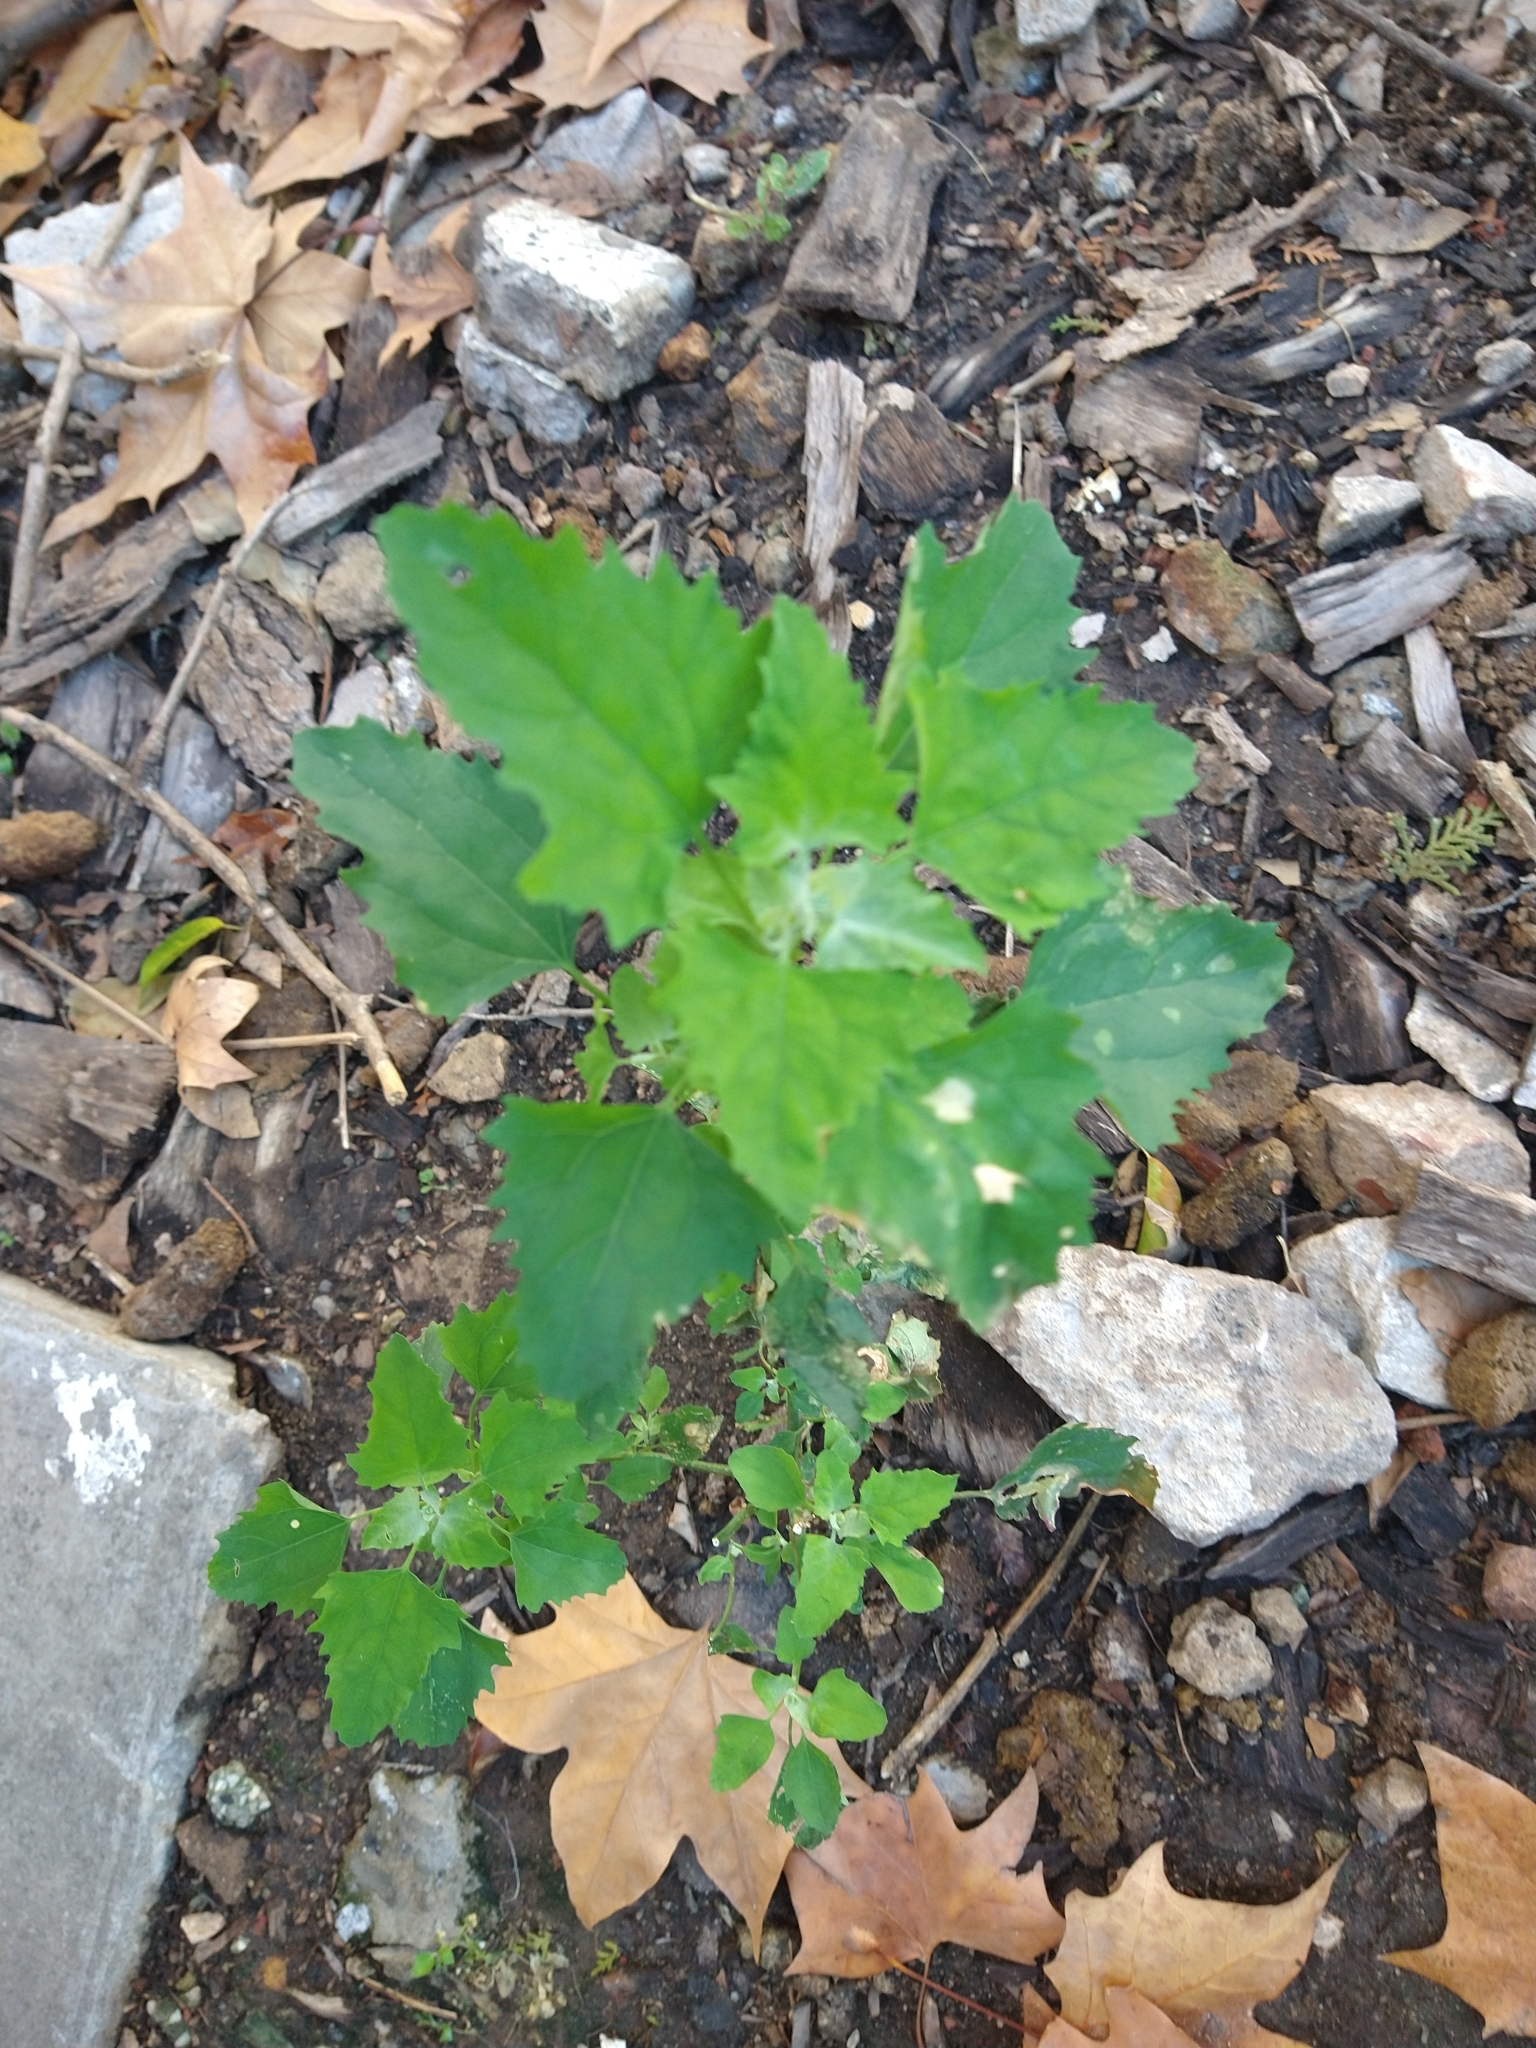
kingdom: Plantae
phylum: Tracheophyta
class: Magnoliopsida
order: Caryophyllales
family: Amaranthaceae
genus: Chenopodium
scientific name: Chenopodium album
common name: Fat-hen
